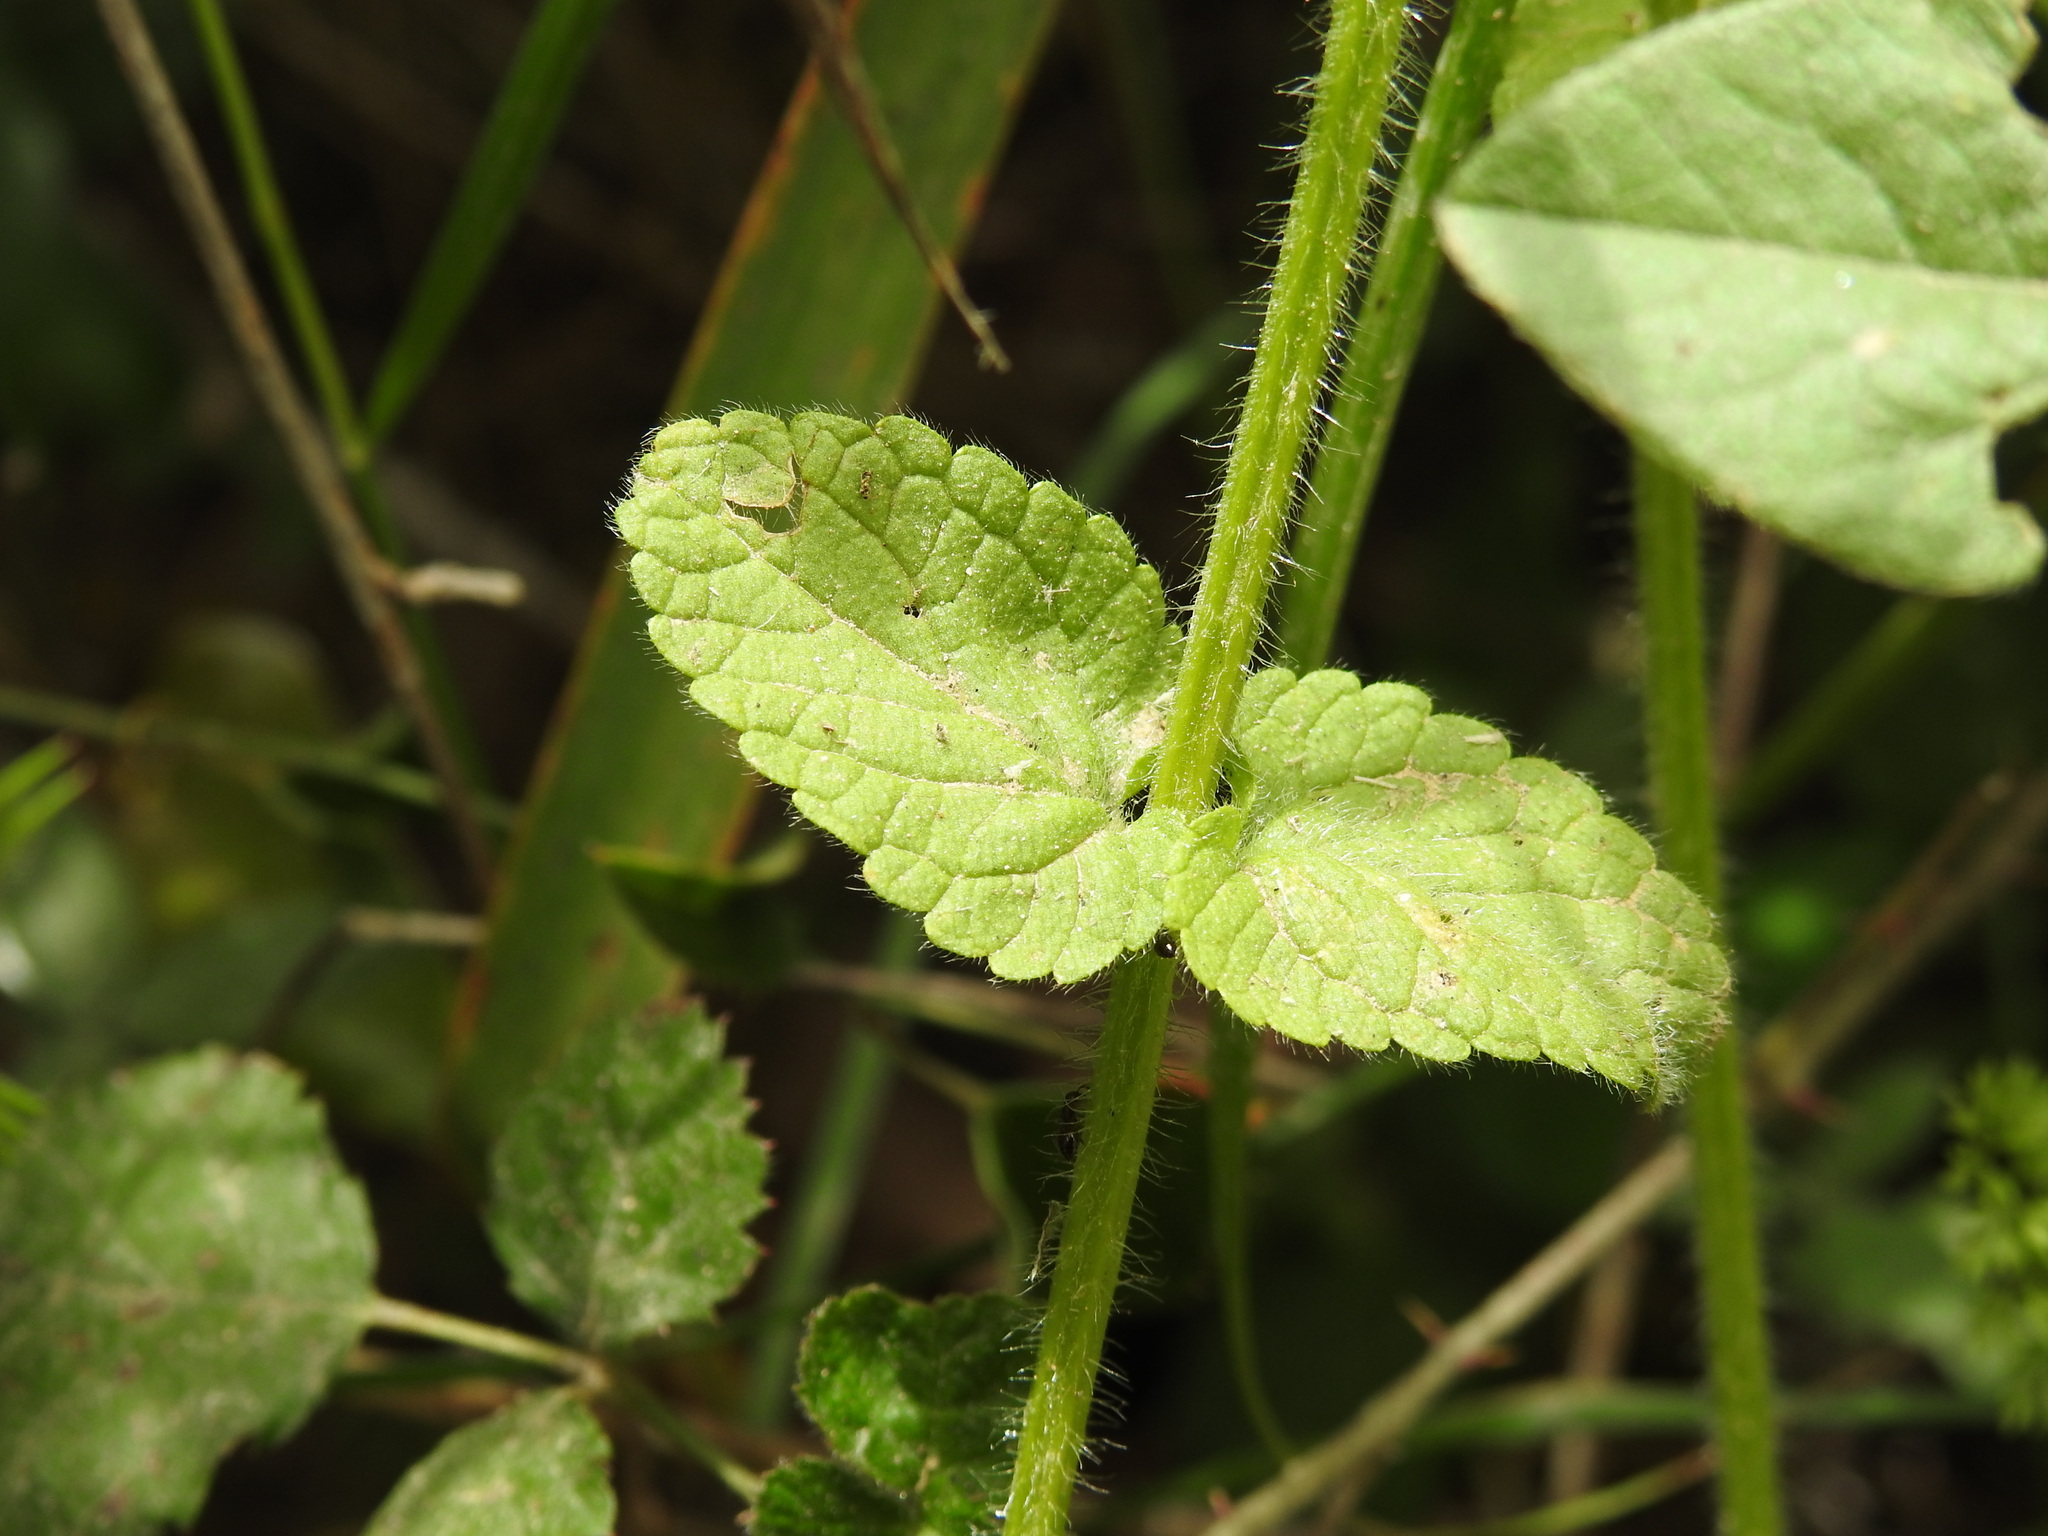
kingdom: Plantae
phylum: Tracheophyta
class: Magnoliopsida
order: Lamiales
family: Lamiaceae
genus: Stachys
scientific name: Stachys ocymastrum
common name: Italian hedgenettle
